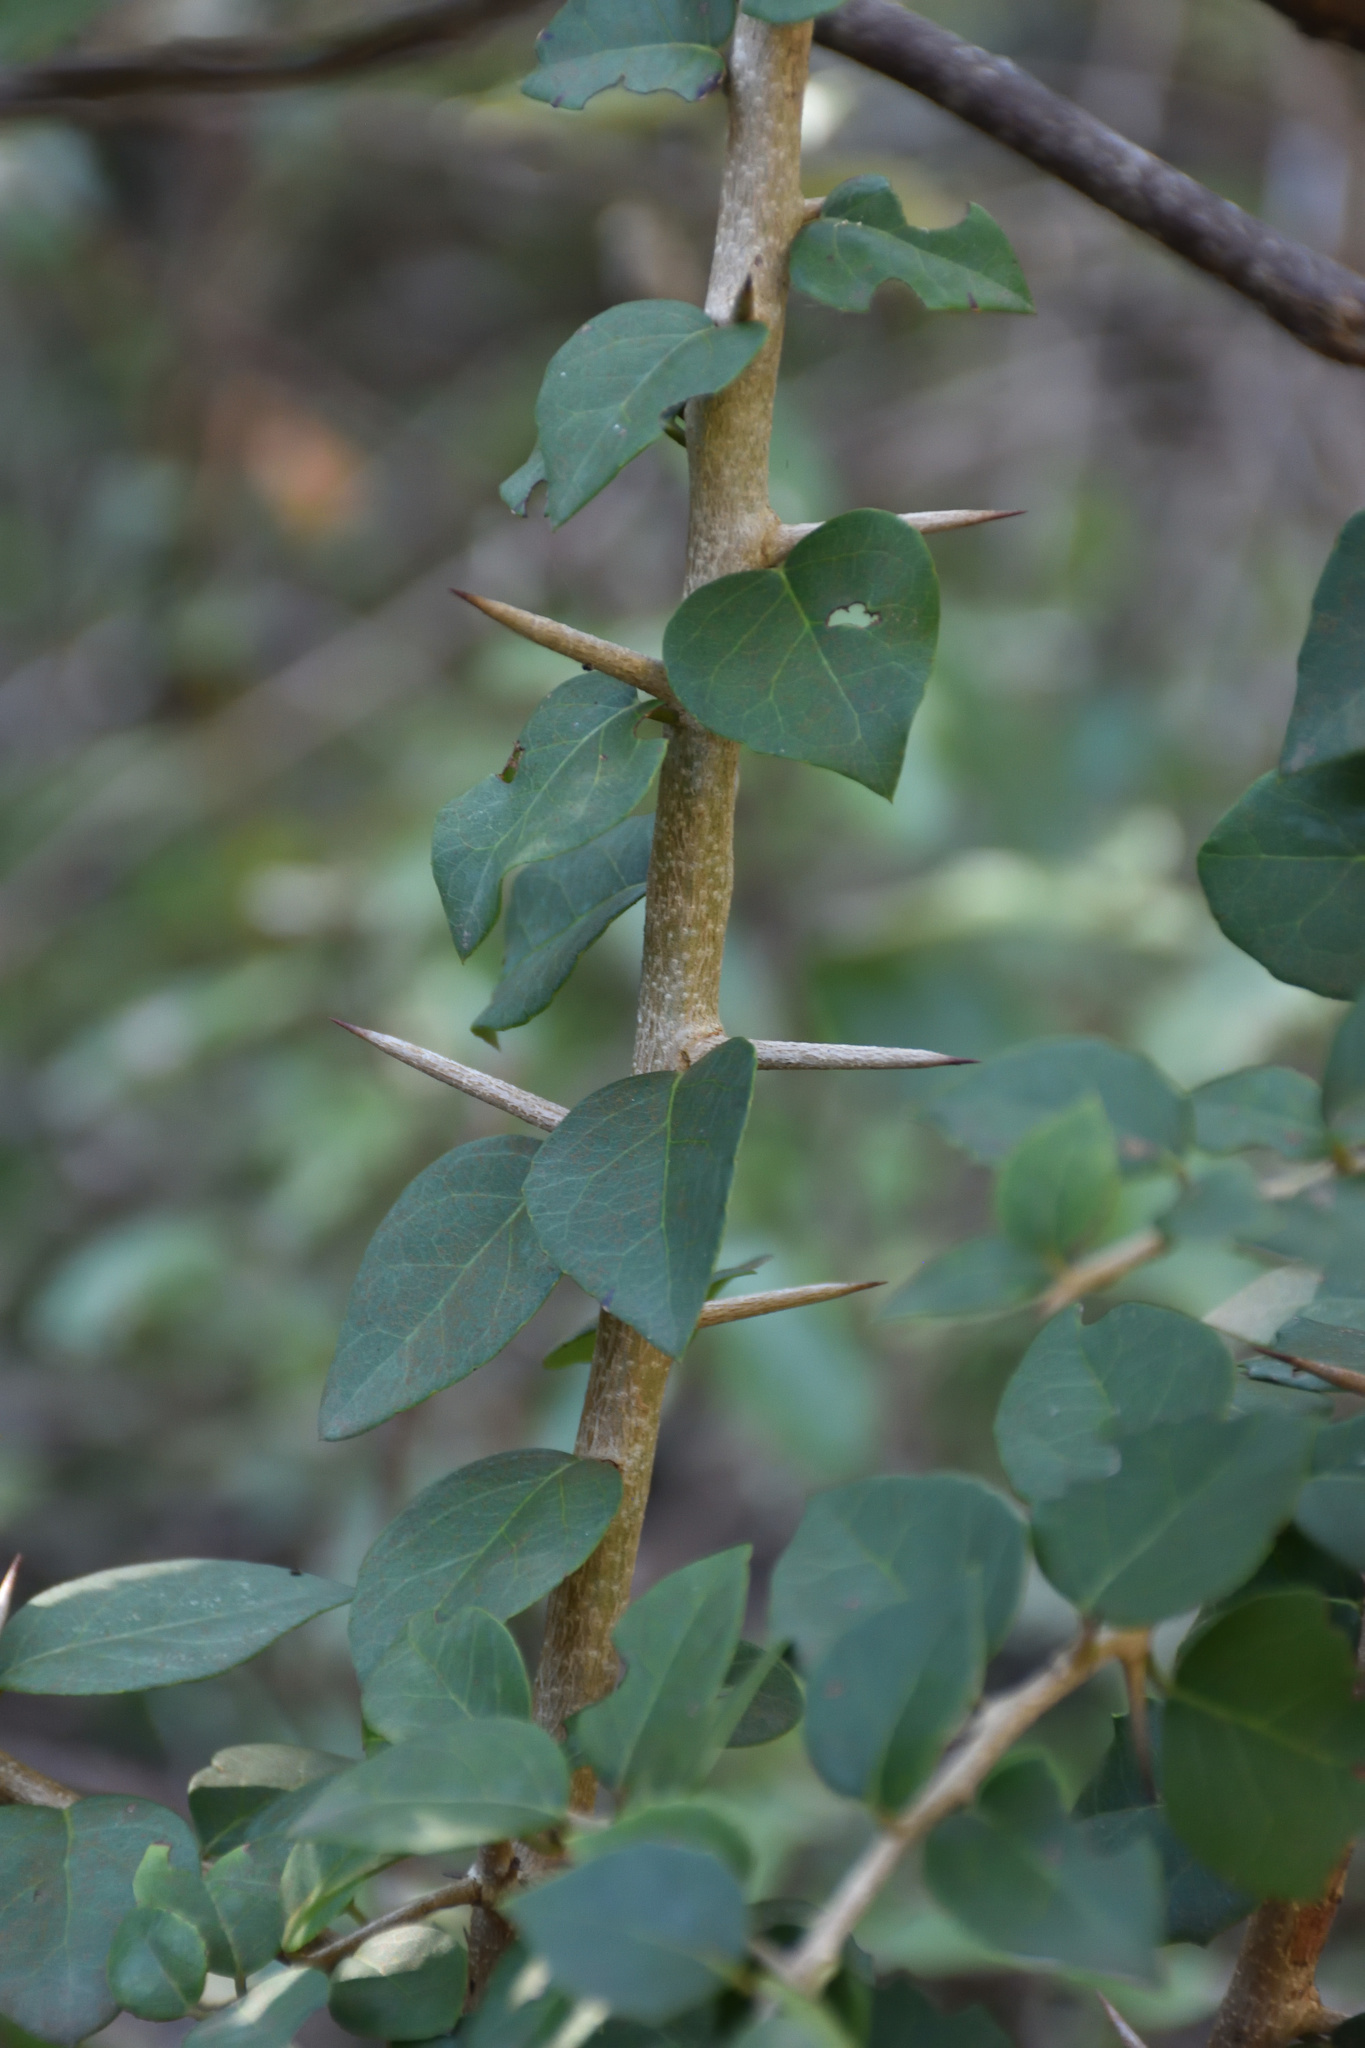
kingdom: Plantae
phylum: Tracheophyta
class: Magnoliopsida
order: Malpighiales
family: Salicaceae
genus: Scolopia
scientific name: Scolopia zeyheri
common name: Thorn pear
